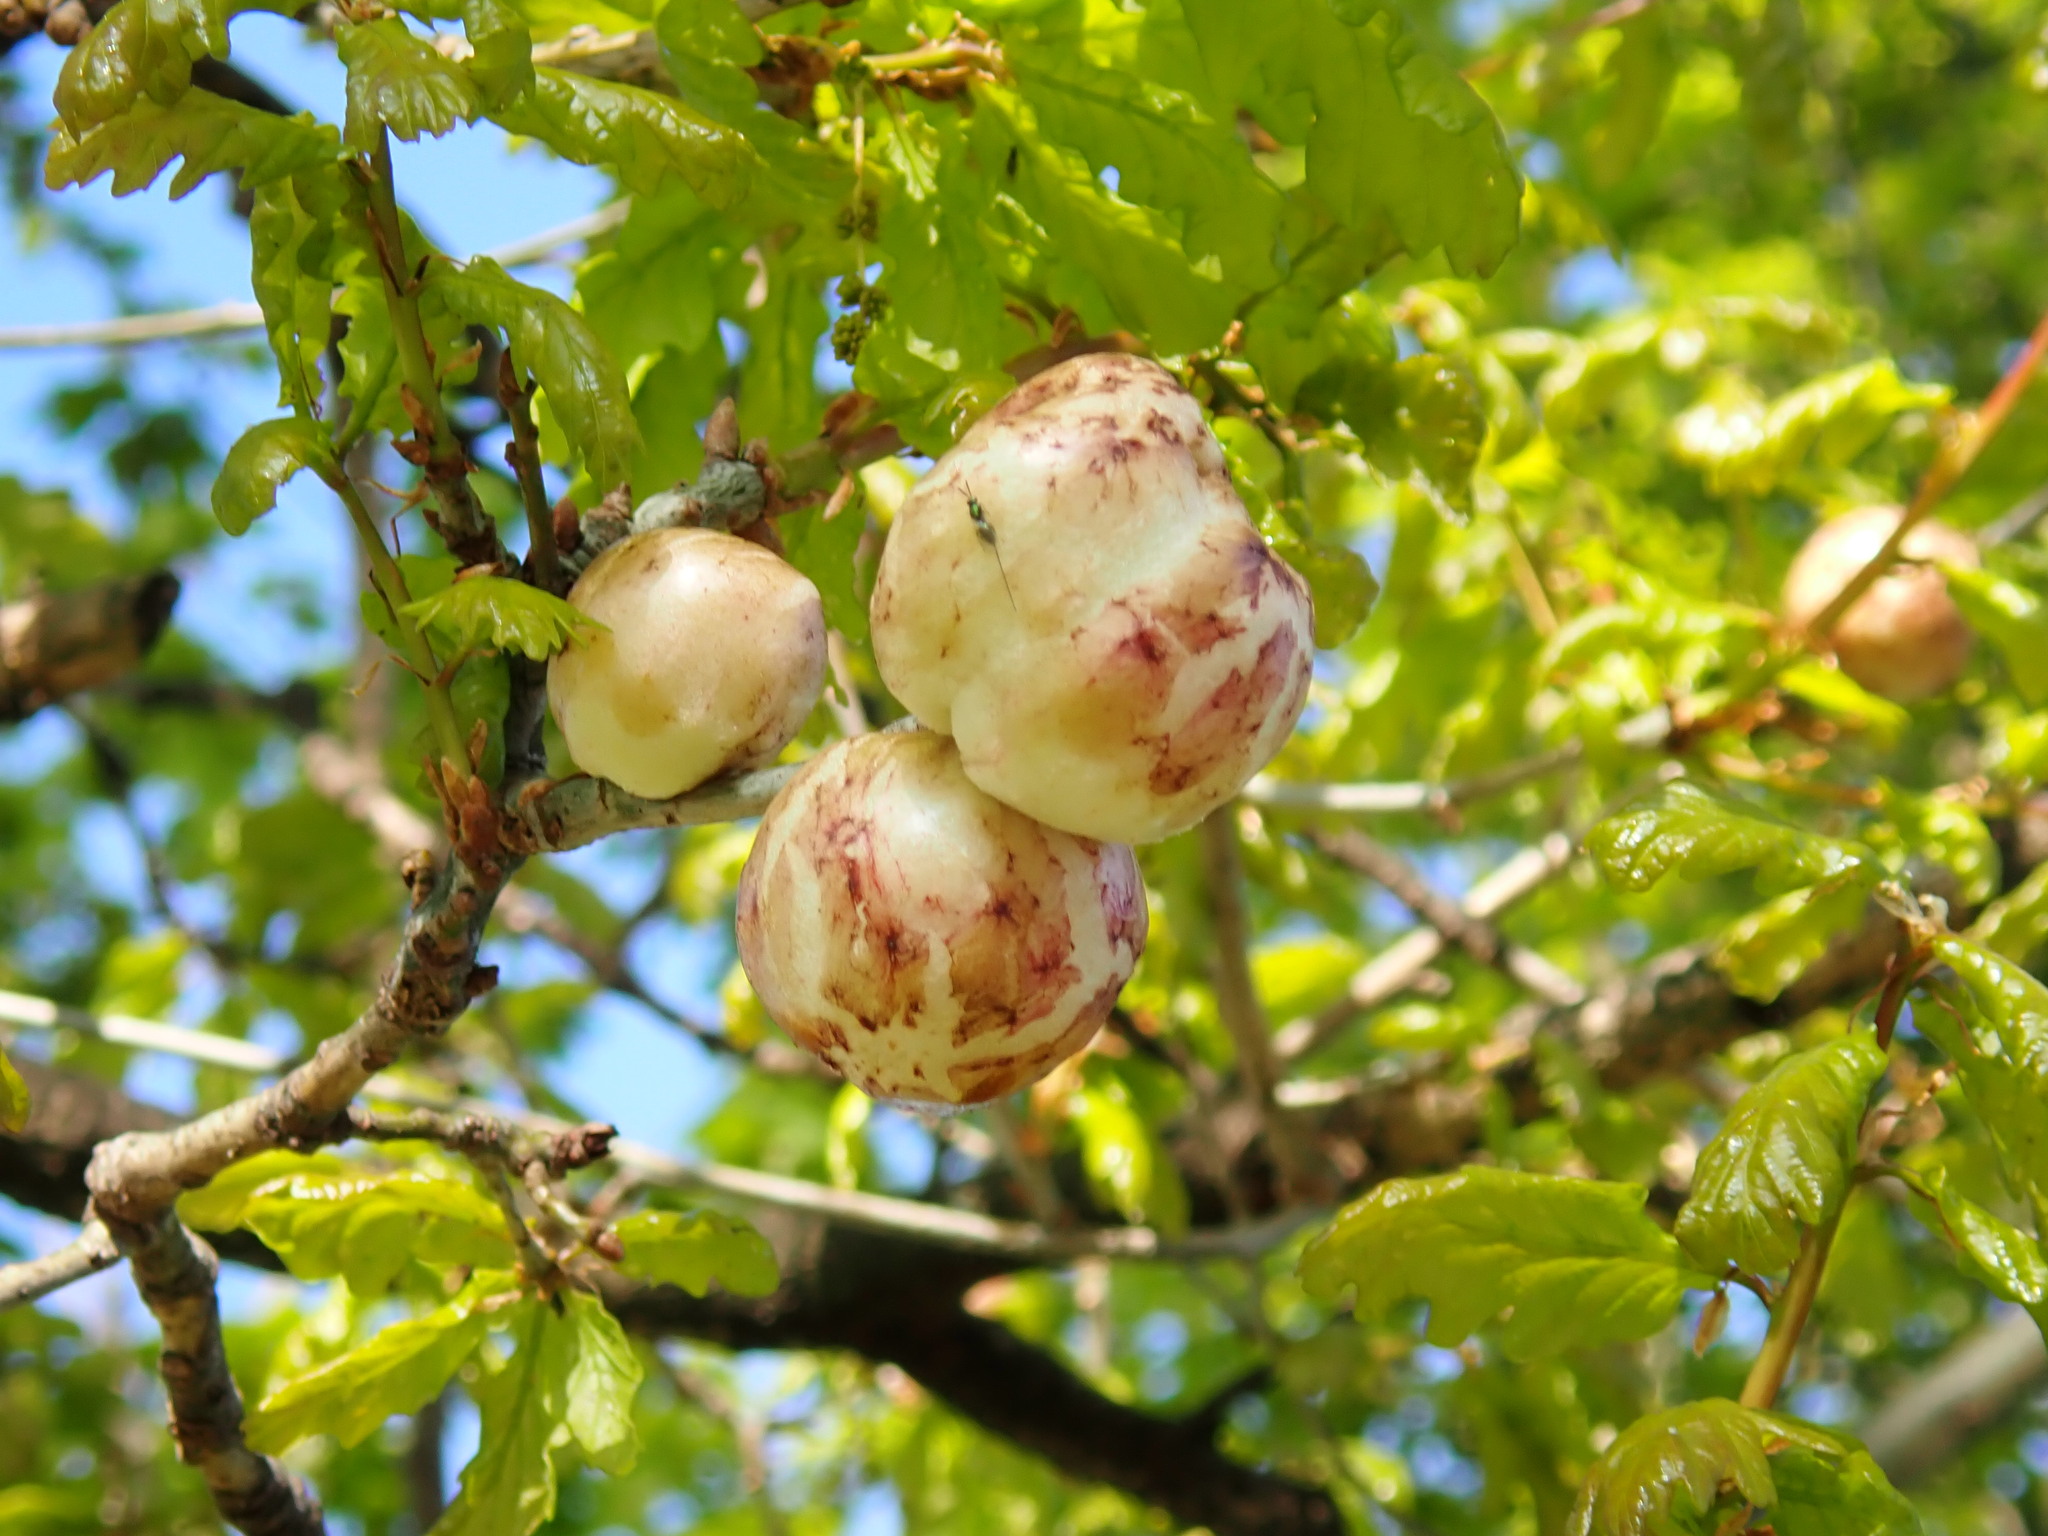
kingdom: Animalia
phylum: Arthropoda
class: Insecta
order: Hymenoptera
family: Cynipidae
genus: Biorhiza
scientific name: Biorhiza pallida
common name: Oak apple
